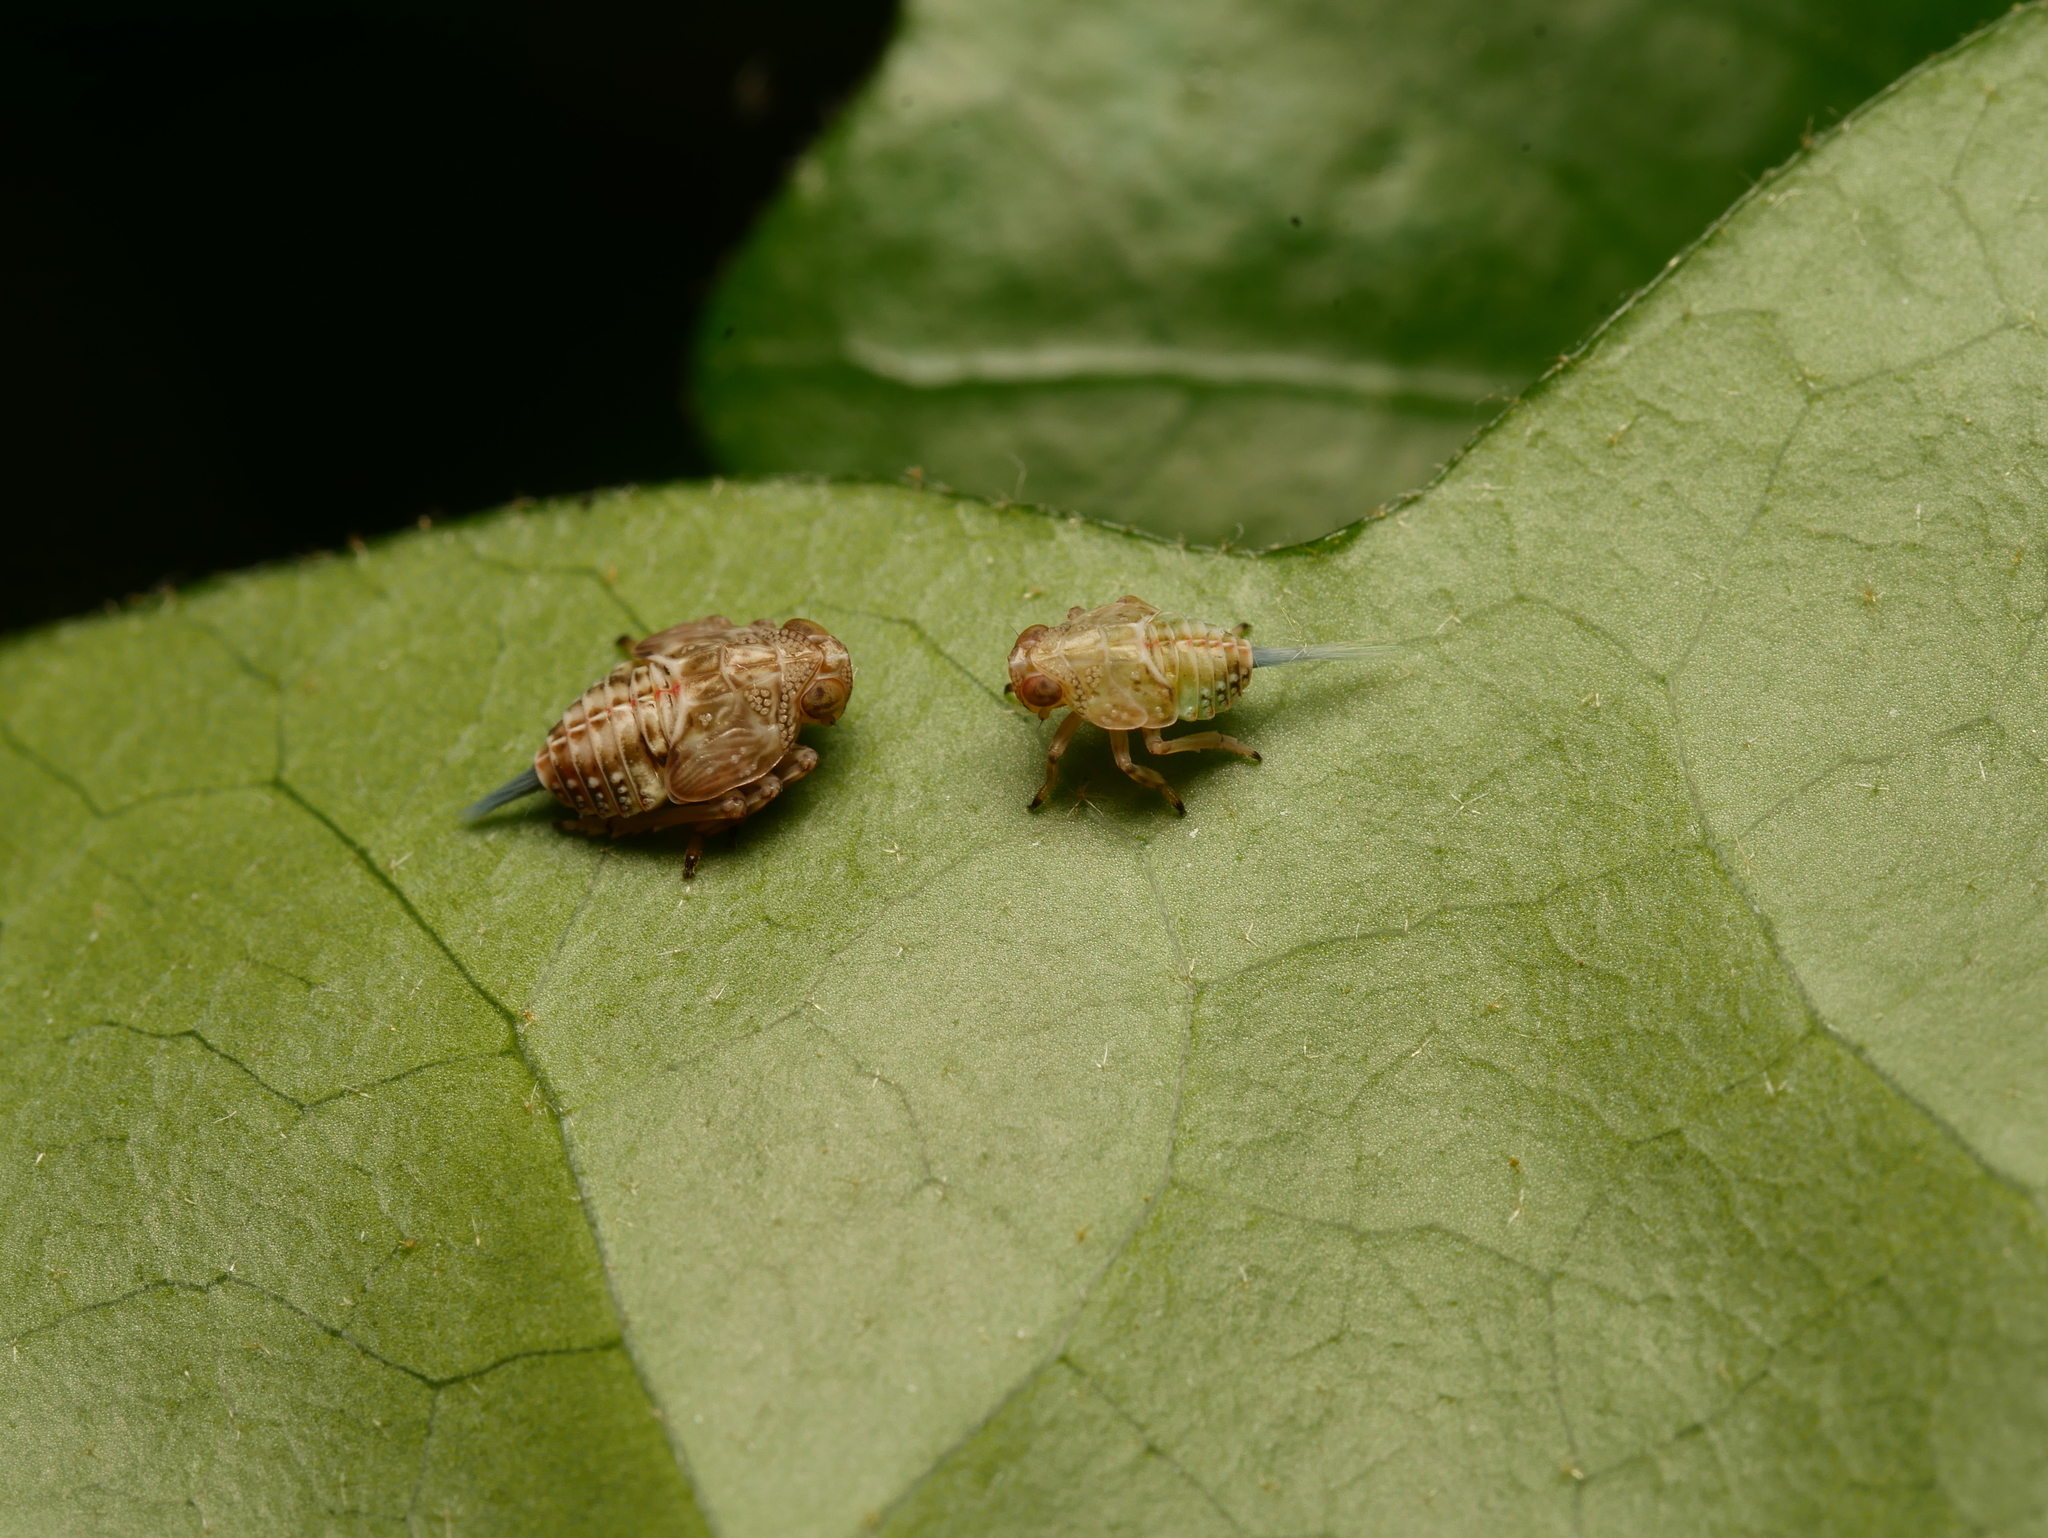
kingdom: Animalia
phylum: Arthropoda
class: Insecta
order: Hemiptera
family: Issidae
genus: Issus
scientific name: Issus coleoptratus
